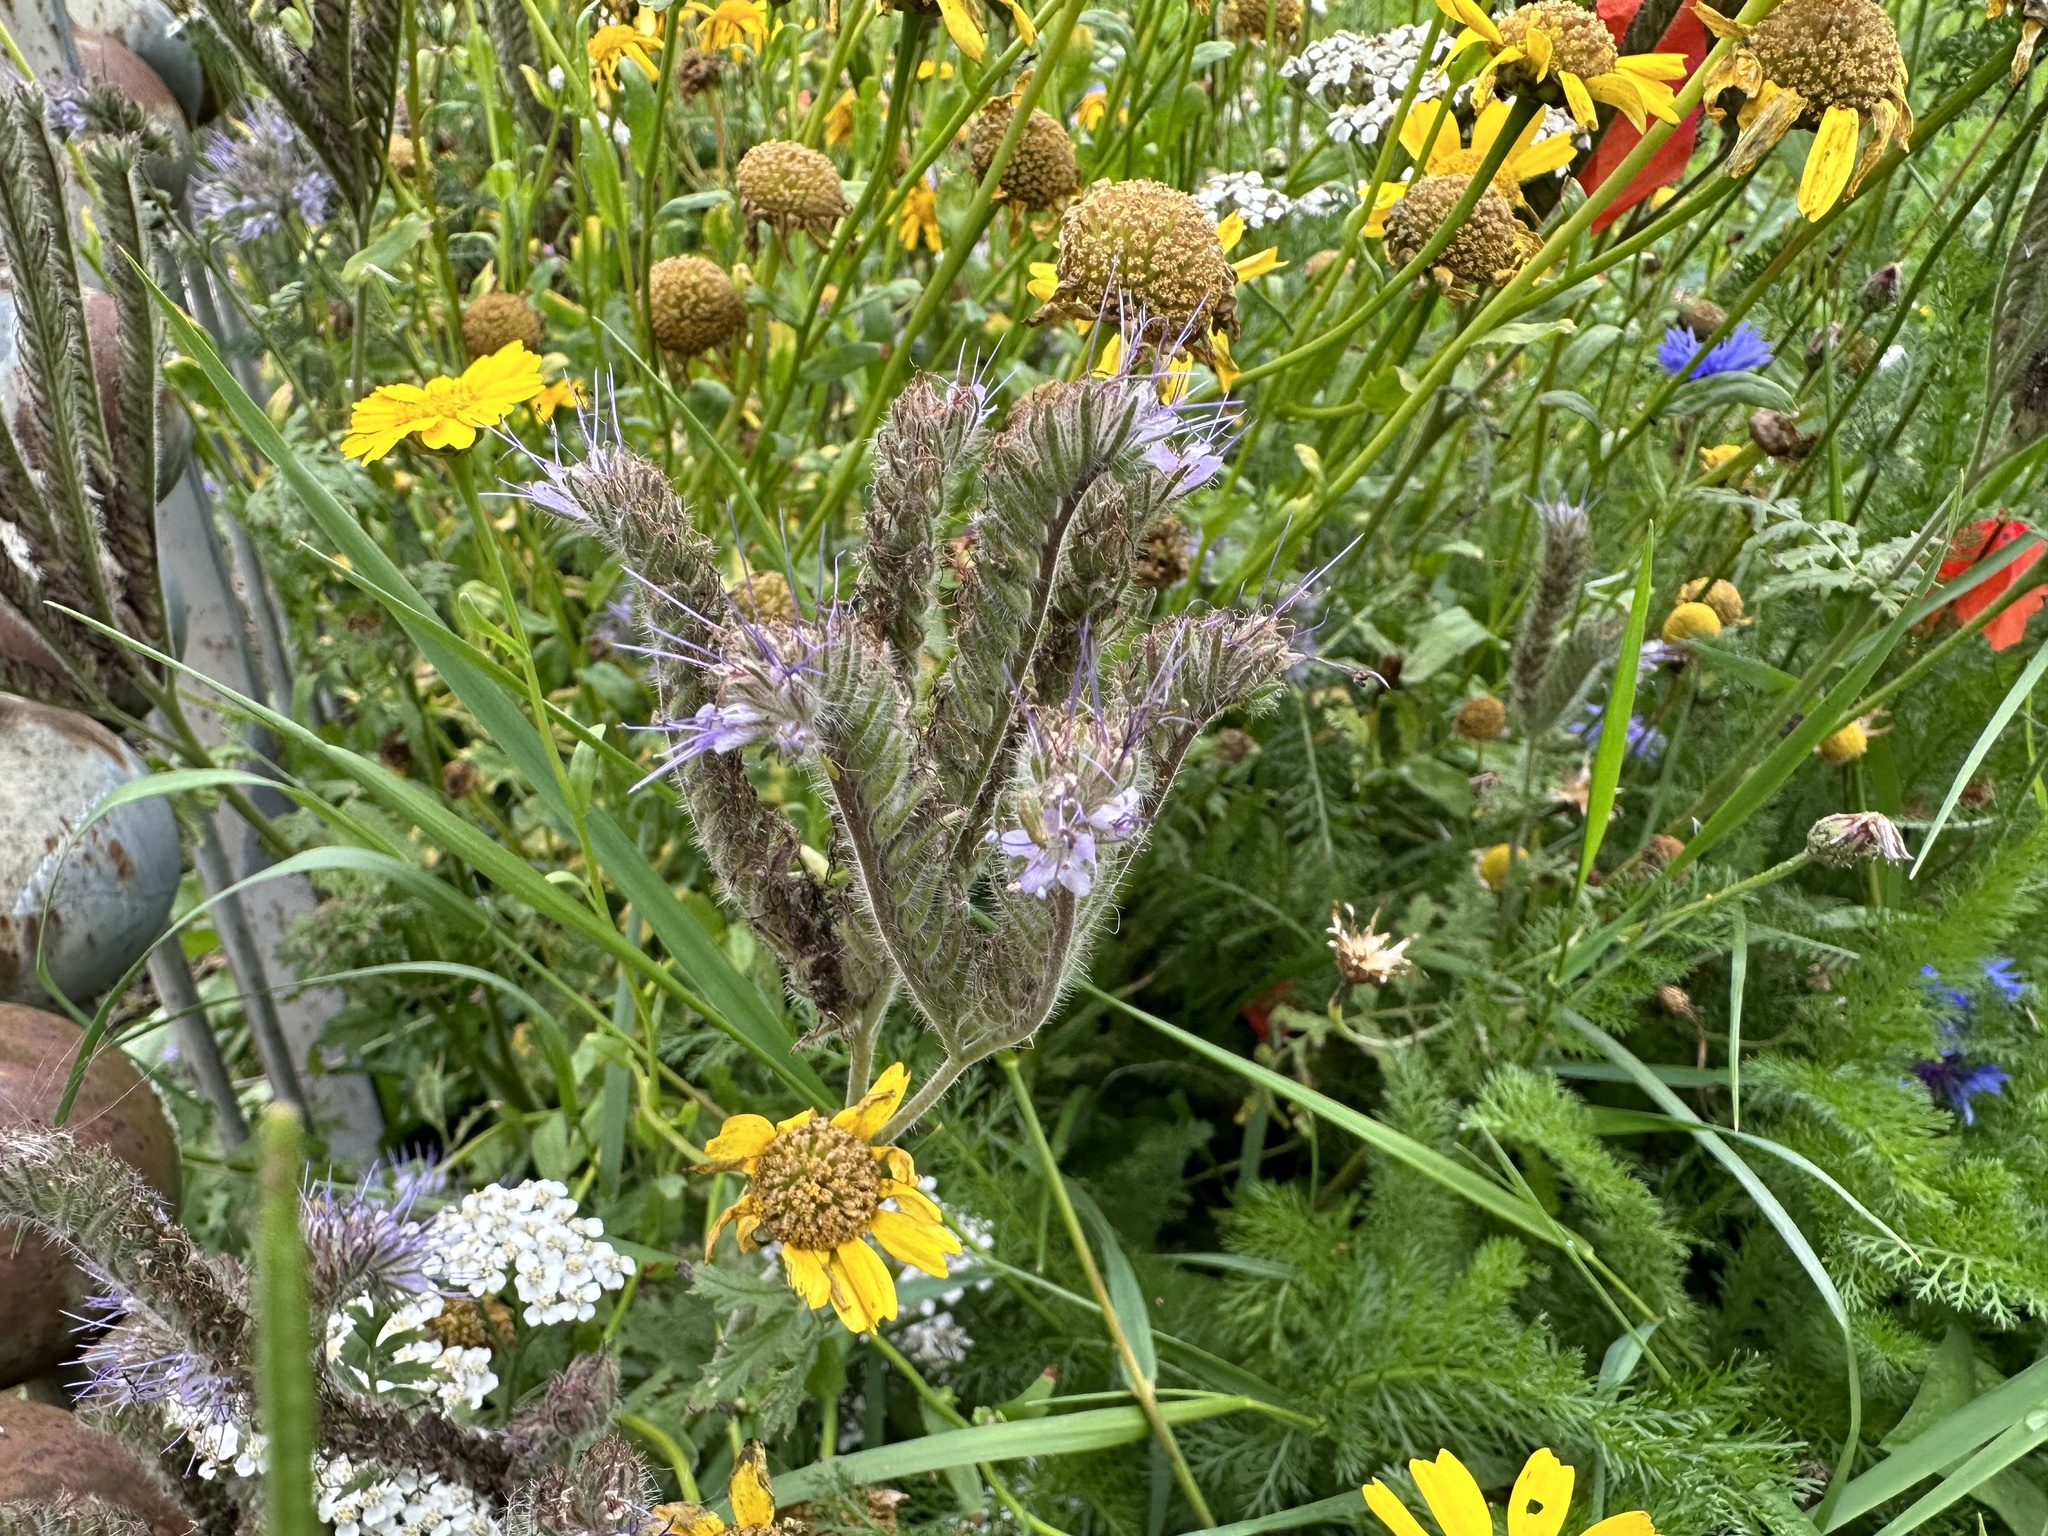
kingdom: Plantae
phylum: Tracheophyta
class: Magnoliopsida
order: Boraginales
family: Hydrophyllaceae
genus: Phacelia
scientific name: Phacelia tanacetifolia
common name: Phacelia
